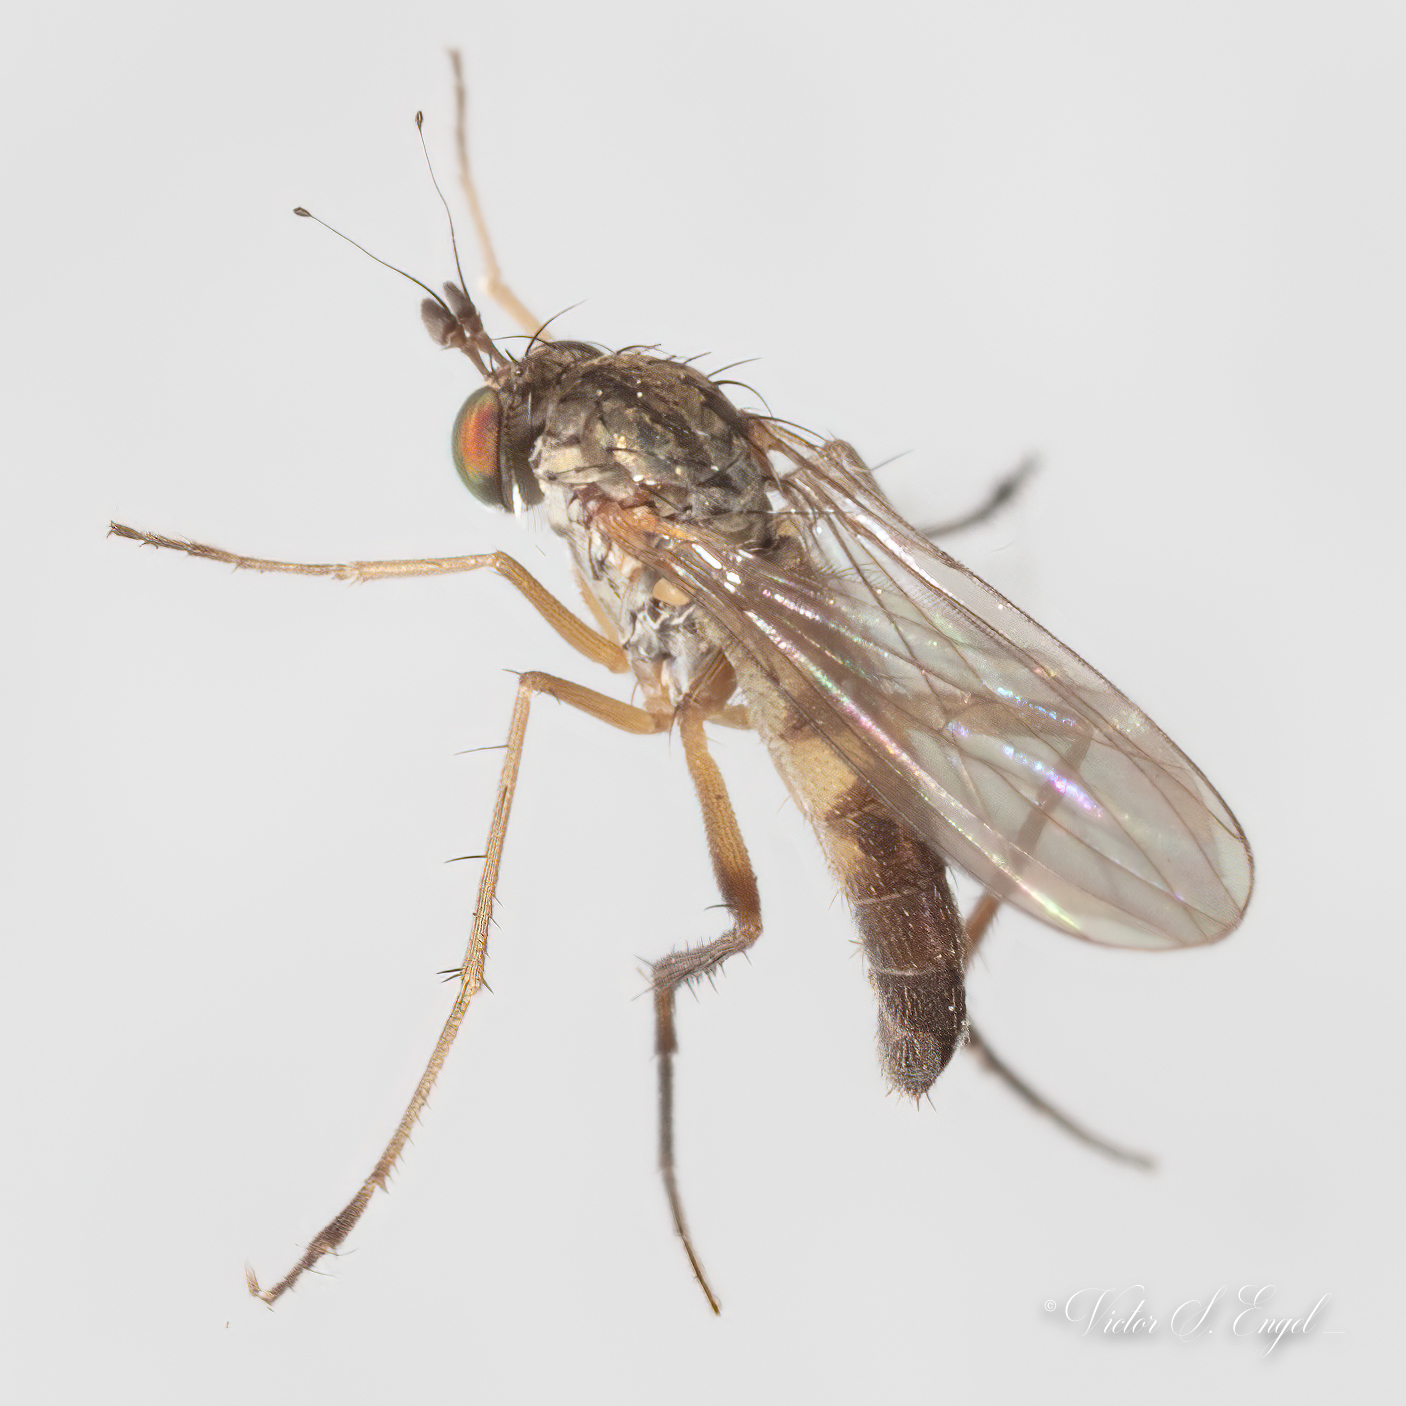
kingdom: Animalia
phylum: Arthropoda
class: Insecta
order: Diptera
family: Dolichopodidae
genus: Calyxochaetus
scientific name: Calyxochaetus
